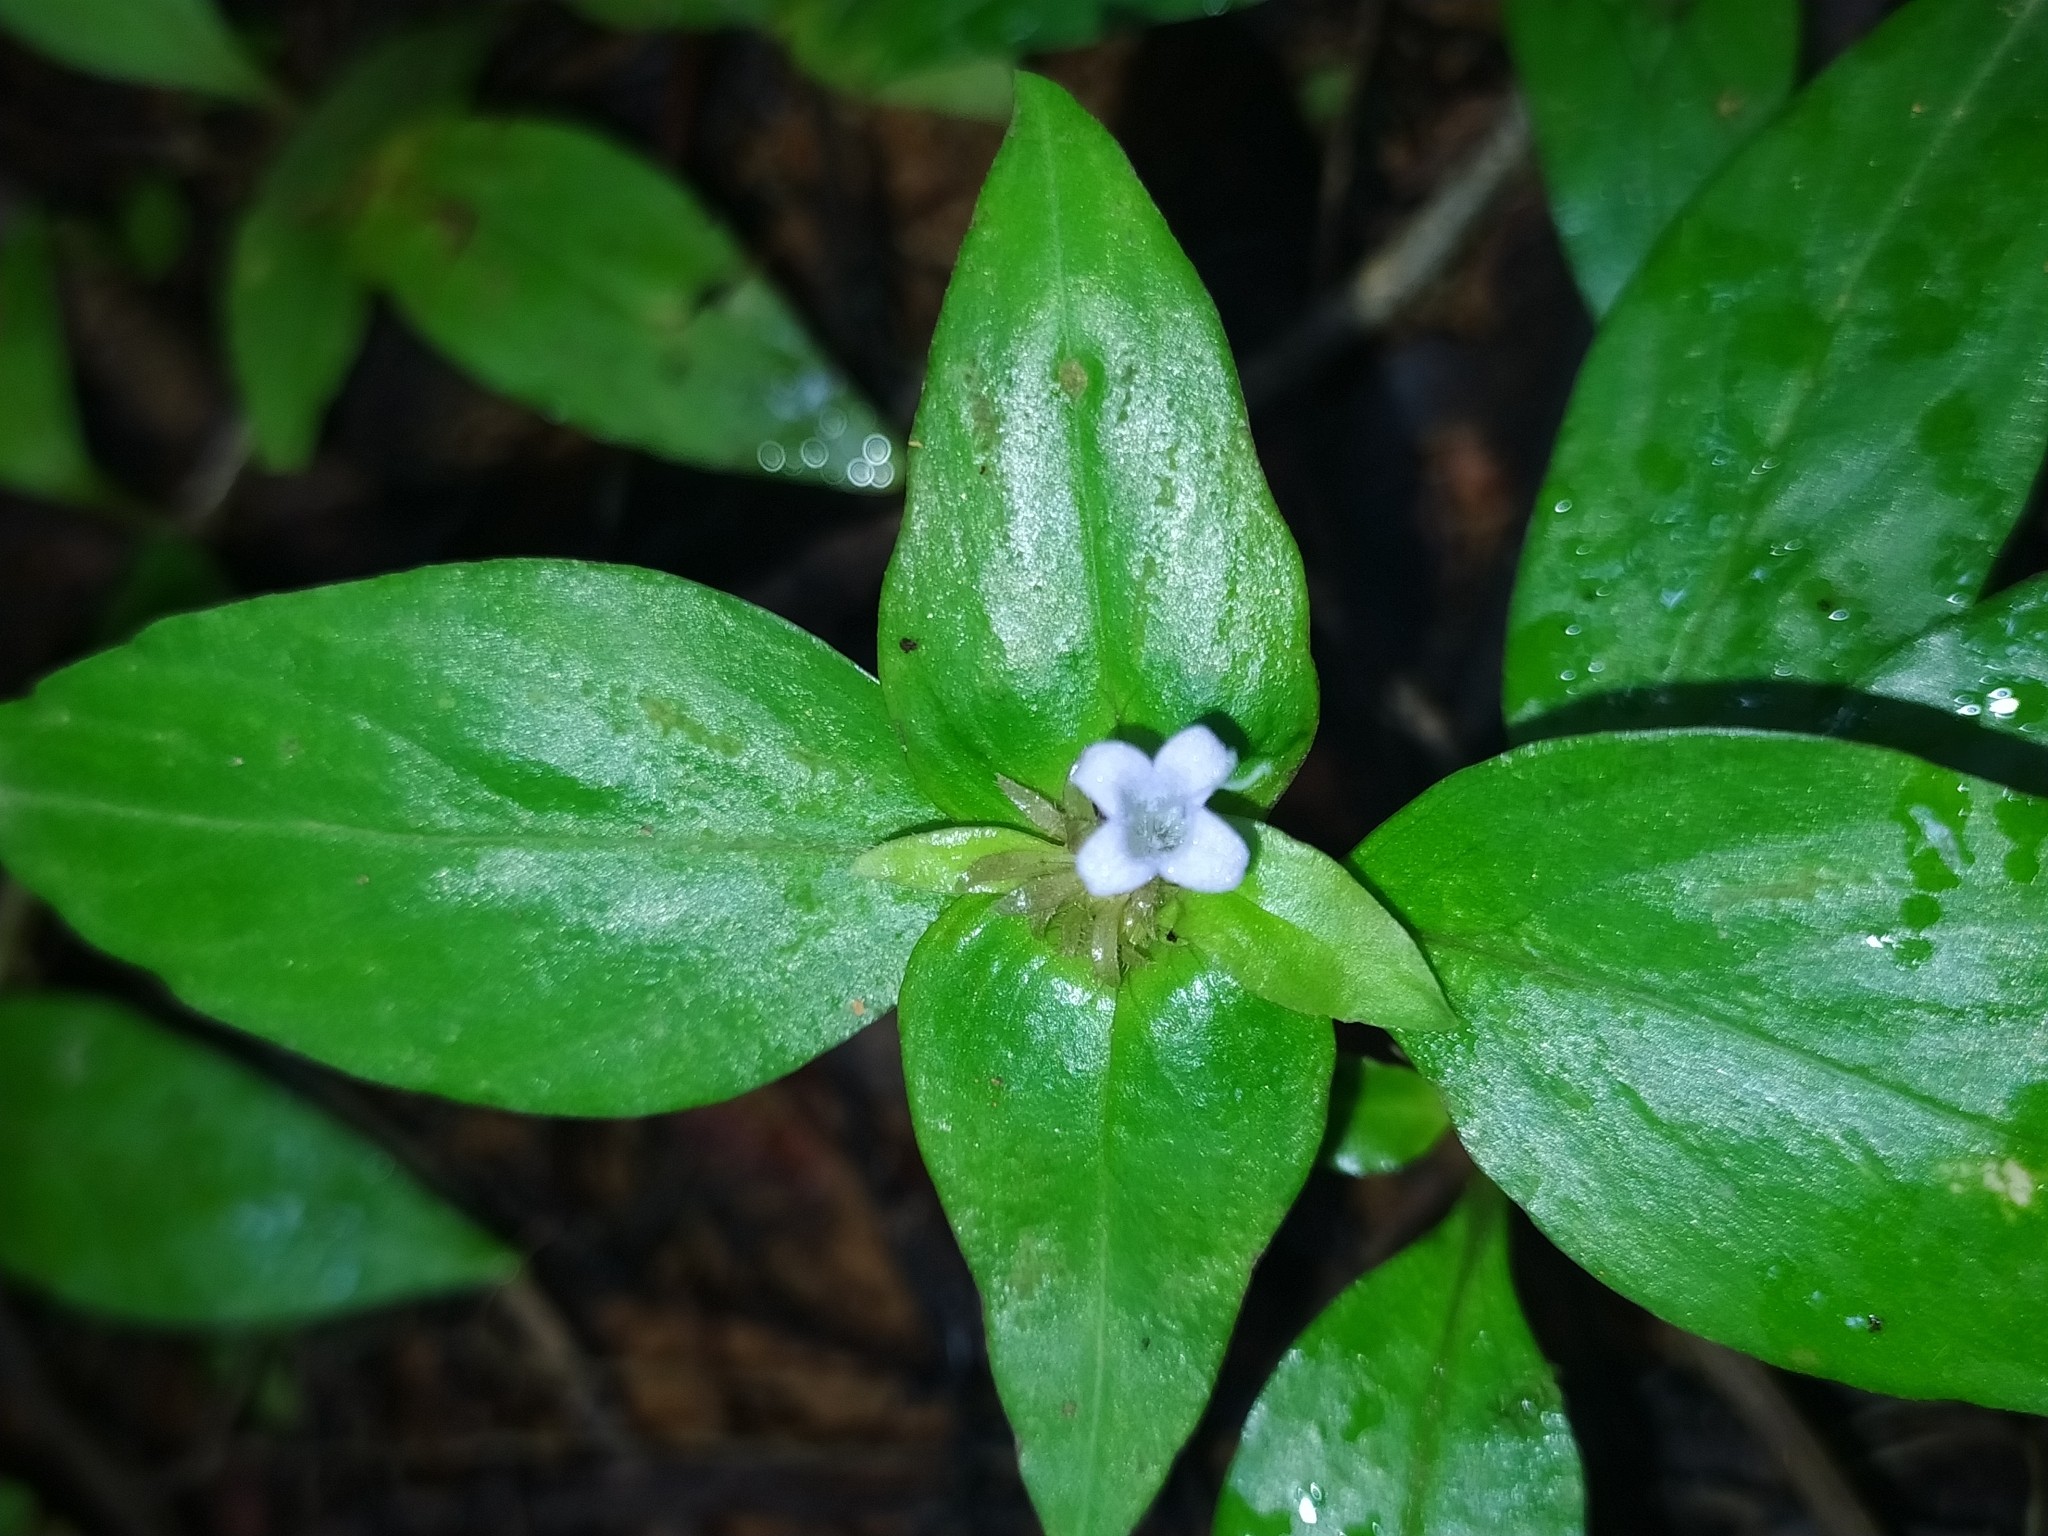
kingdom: Plantae
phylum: Tracheophyta
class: Magnoliopsida
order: Gentianales
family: Rubiaceae
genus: Spermacoce
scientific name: Spermacoce alata
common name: Winged false buttonweed
